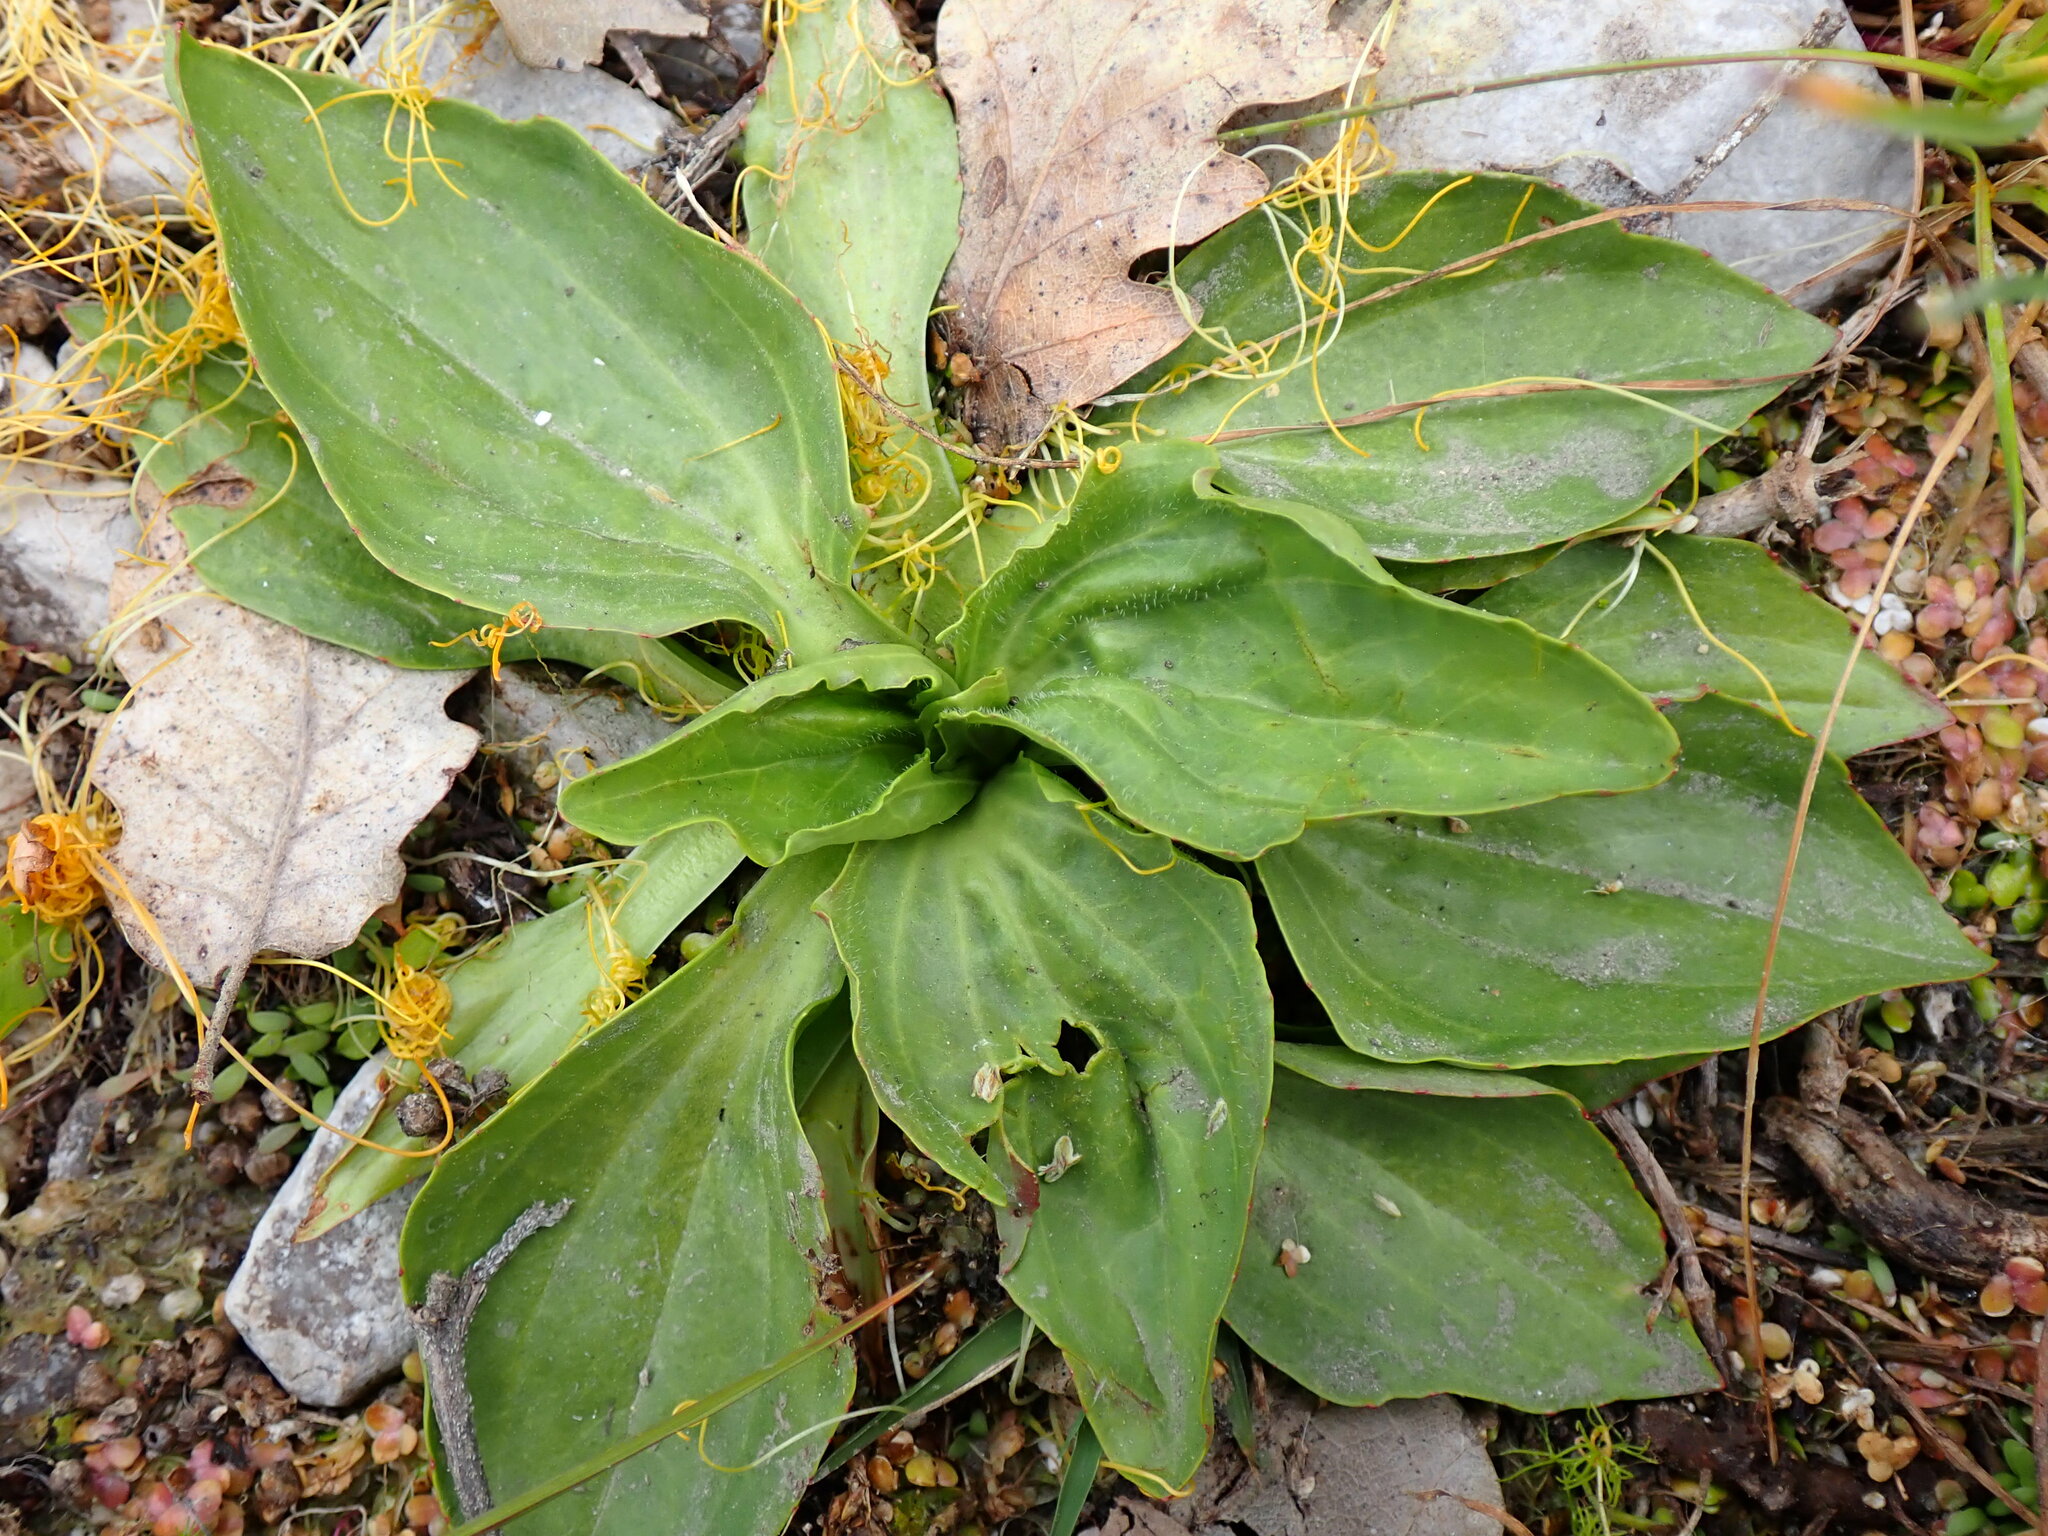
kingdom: Plantae
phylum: Tracheophyta
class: Magnoliopsida
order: Lamiales
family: Plantaginaceae
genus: Plantago
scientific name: Plantago major
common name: Common plantain
